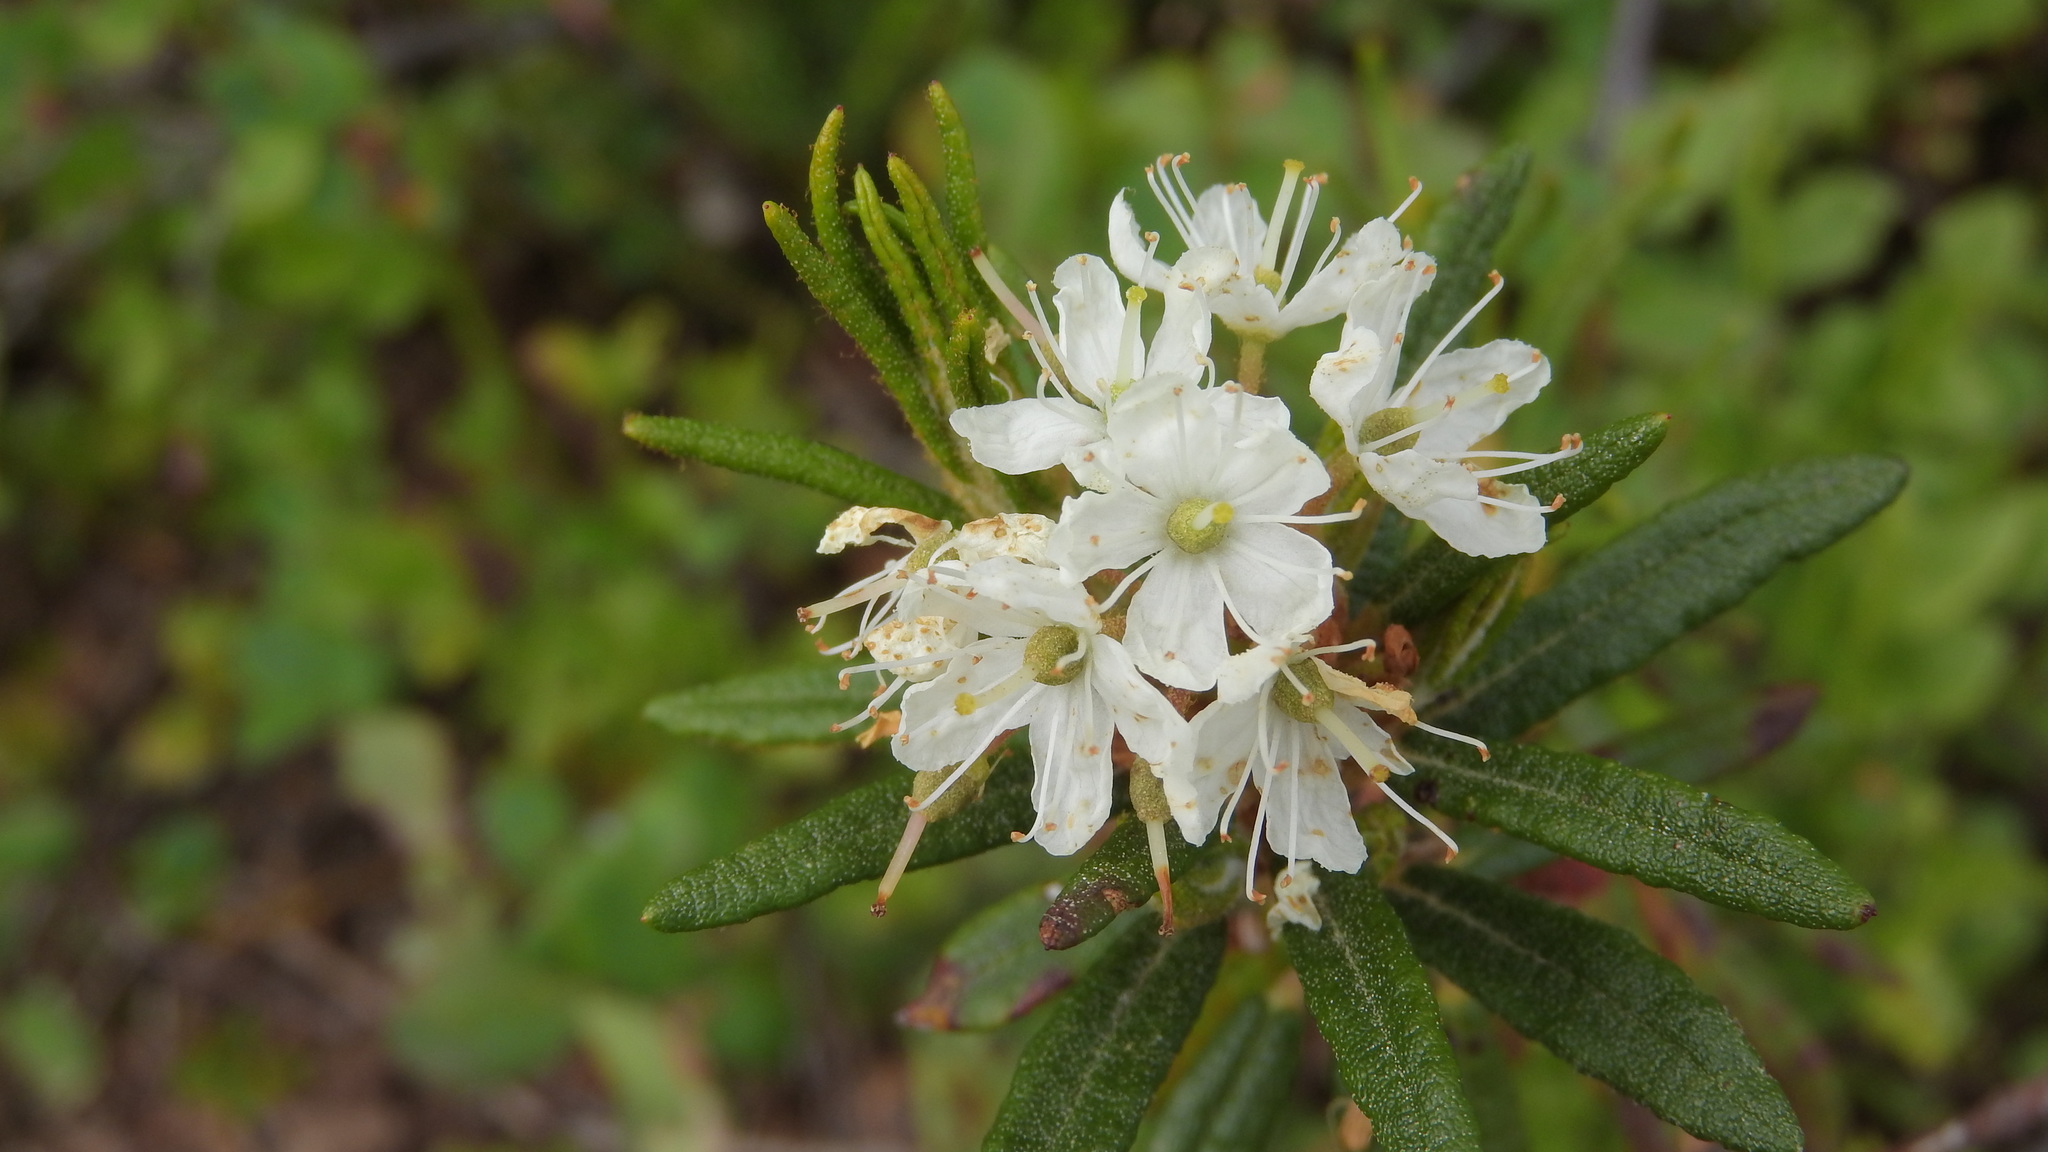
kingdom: Plantae
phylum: Tracheophyta
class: Magnoliopsida
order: Ericales
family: Ericaceae
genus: Rhododendron
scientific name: Rhododendron tomentosum
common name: Marsh labrador tea
